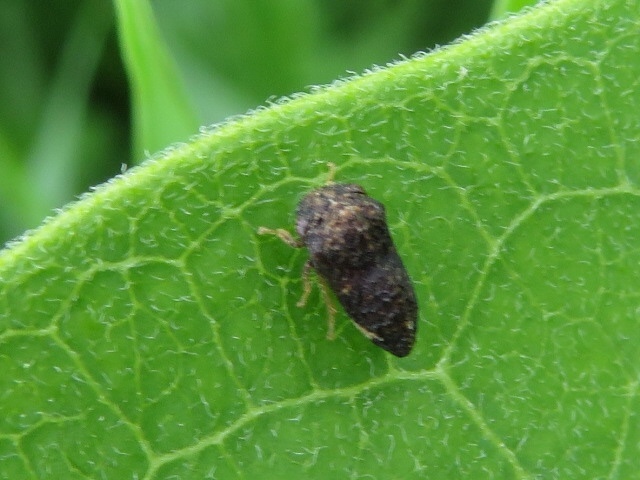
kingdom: Animalia
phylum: Arthropoda
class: Insecta
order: Hemiptera
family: Membracidae
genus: Publilia
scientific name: Publilia reticulata
